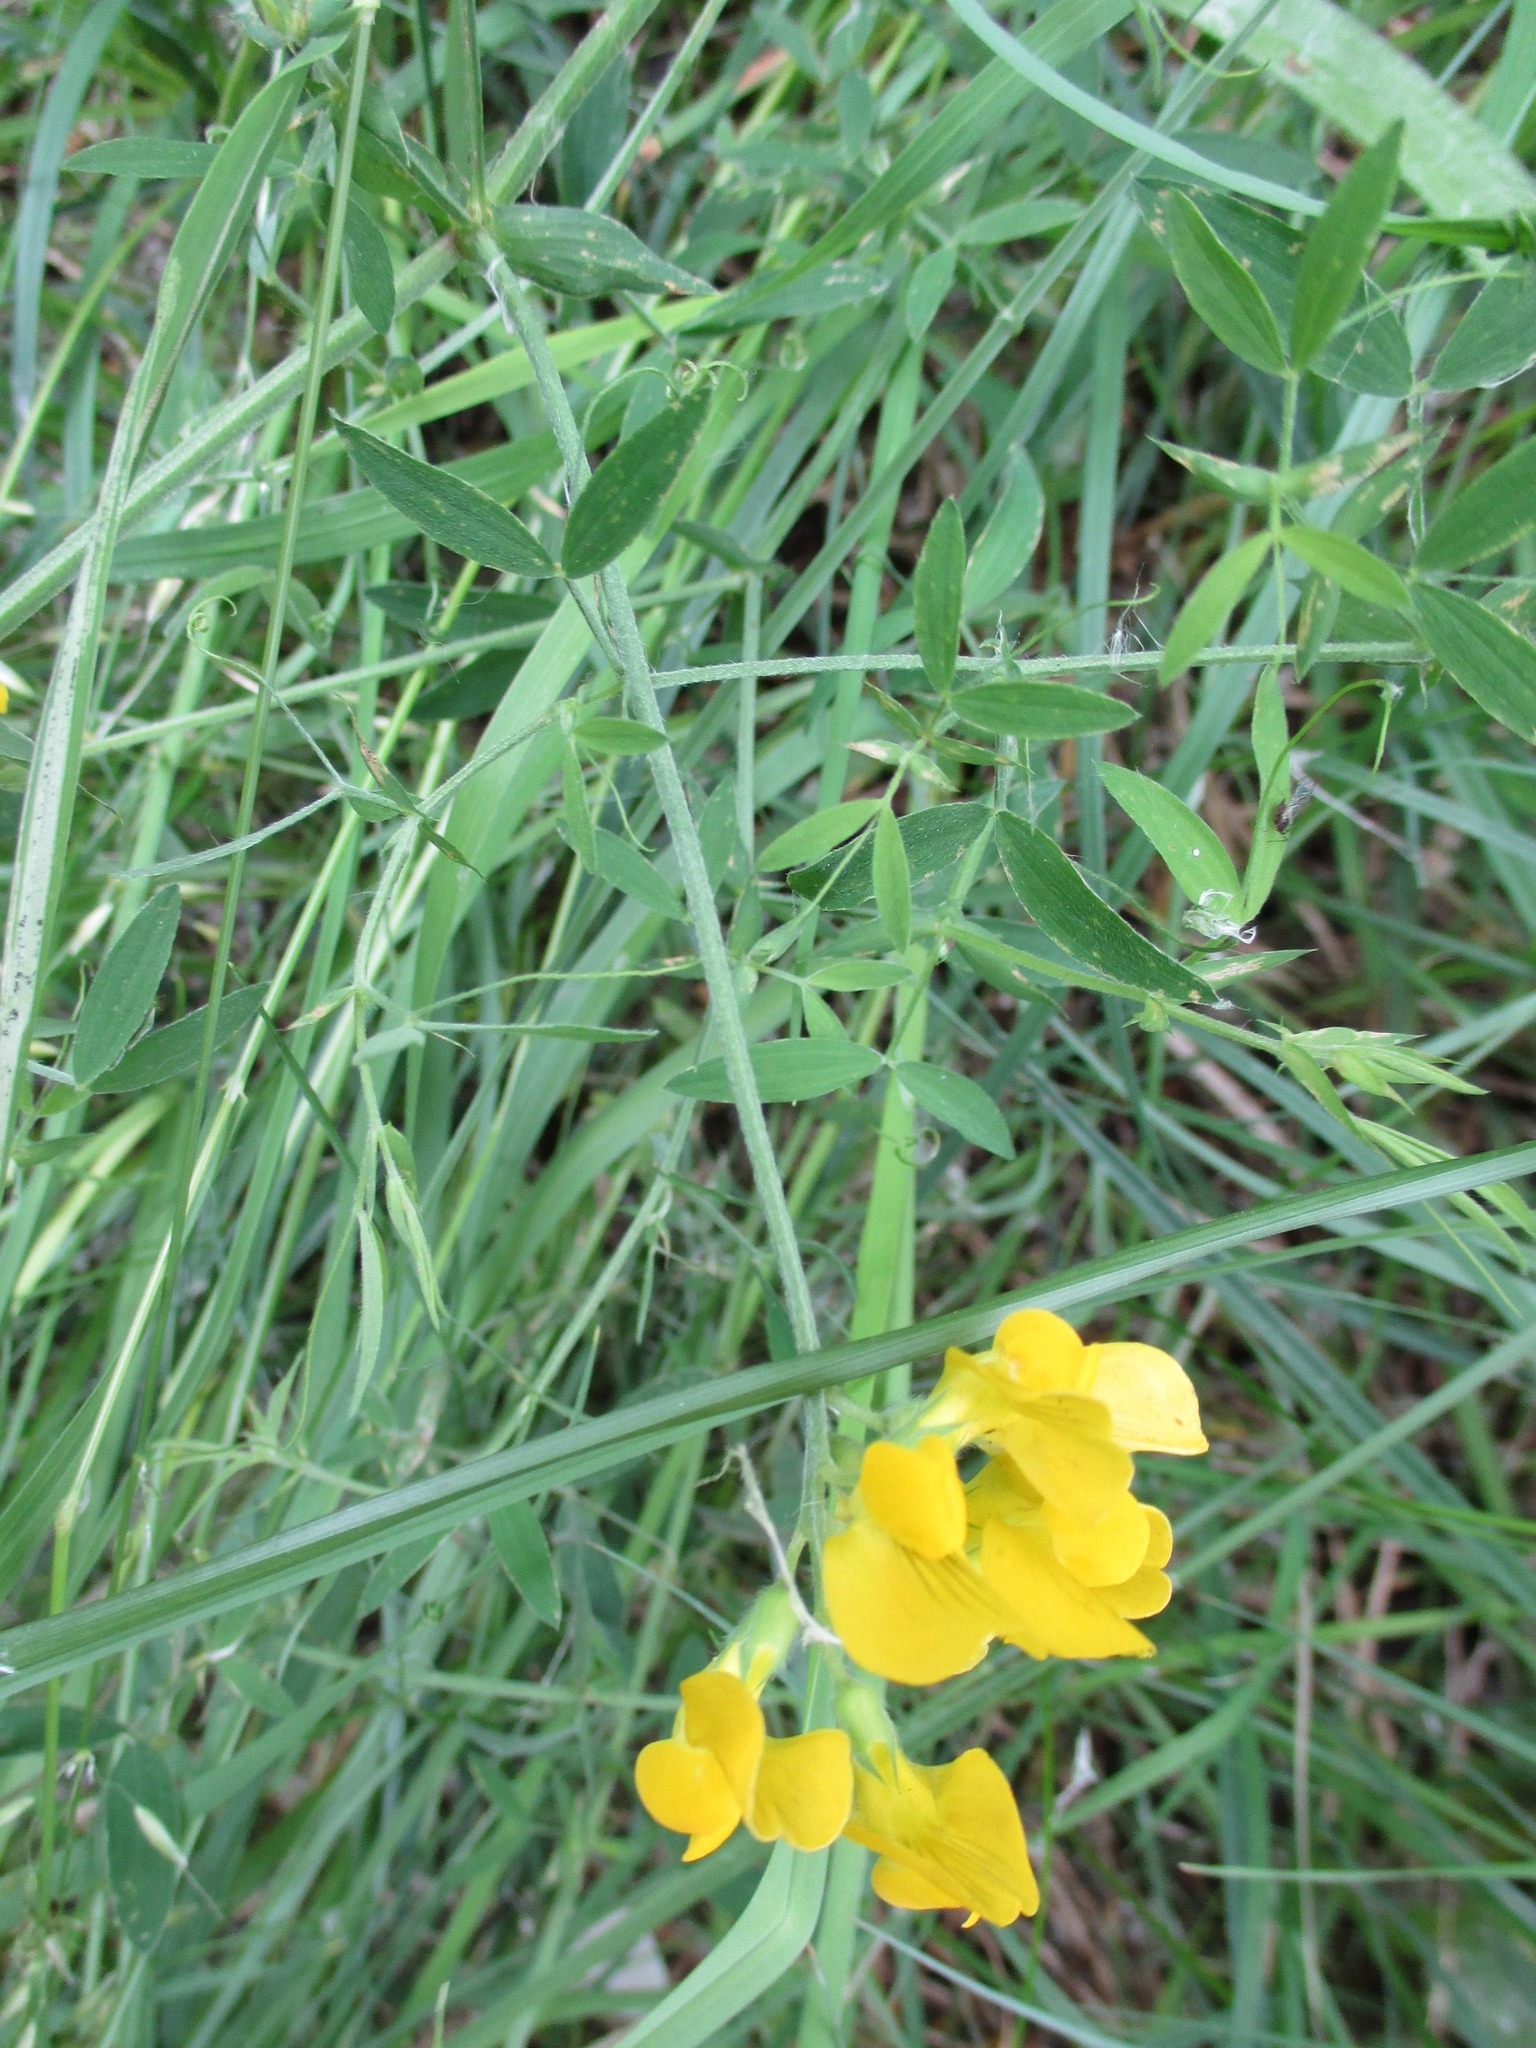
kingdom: Plantae
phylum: Tracheophyta
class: Magnoliopsida
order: Fabales
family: Fabaceae
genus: Lathyrus
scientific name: Lathyrus pratensis
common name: Meadow vetchling
